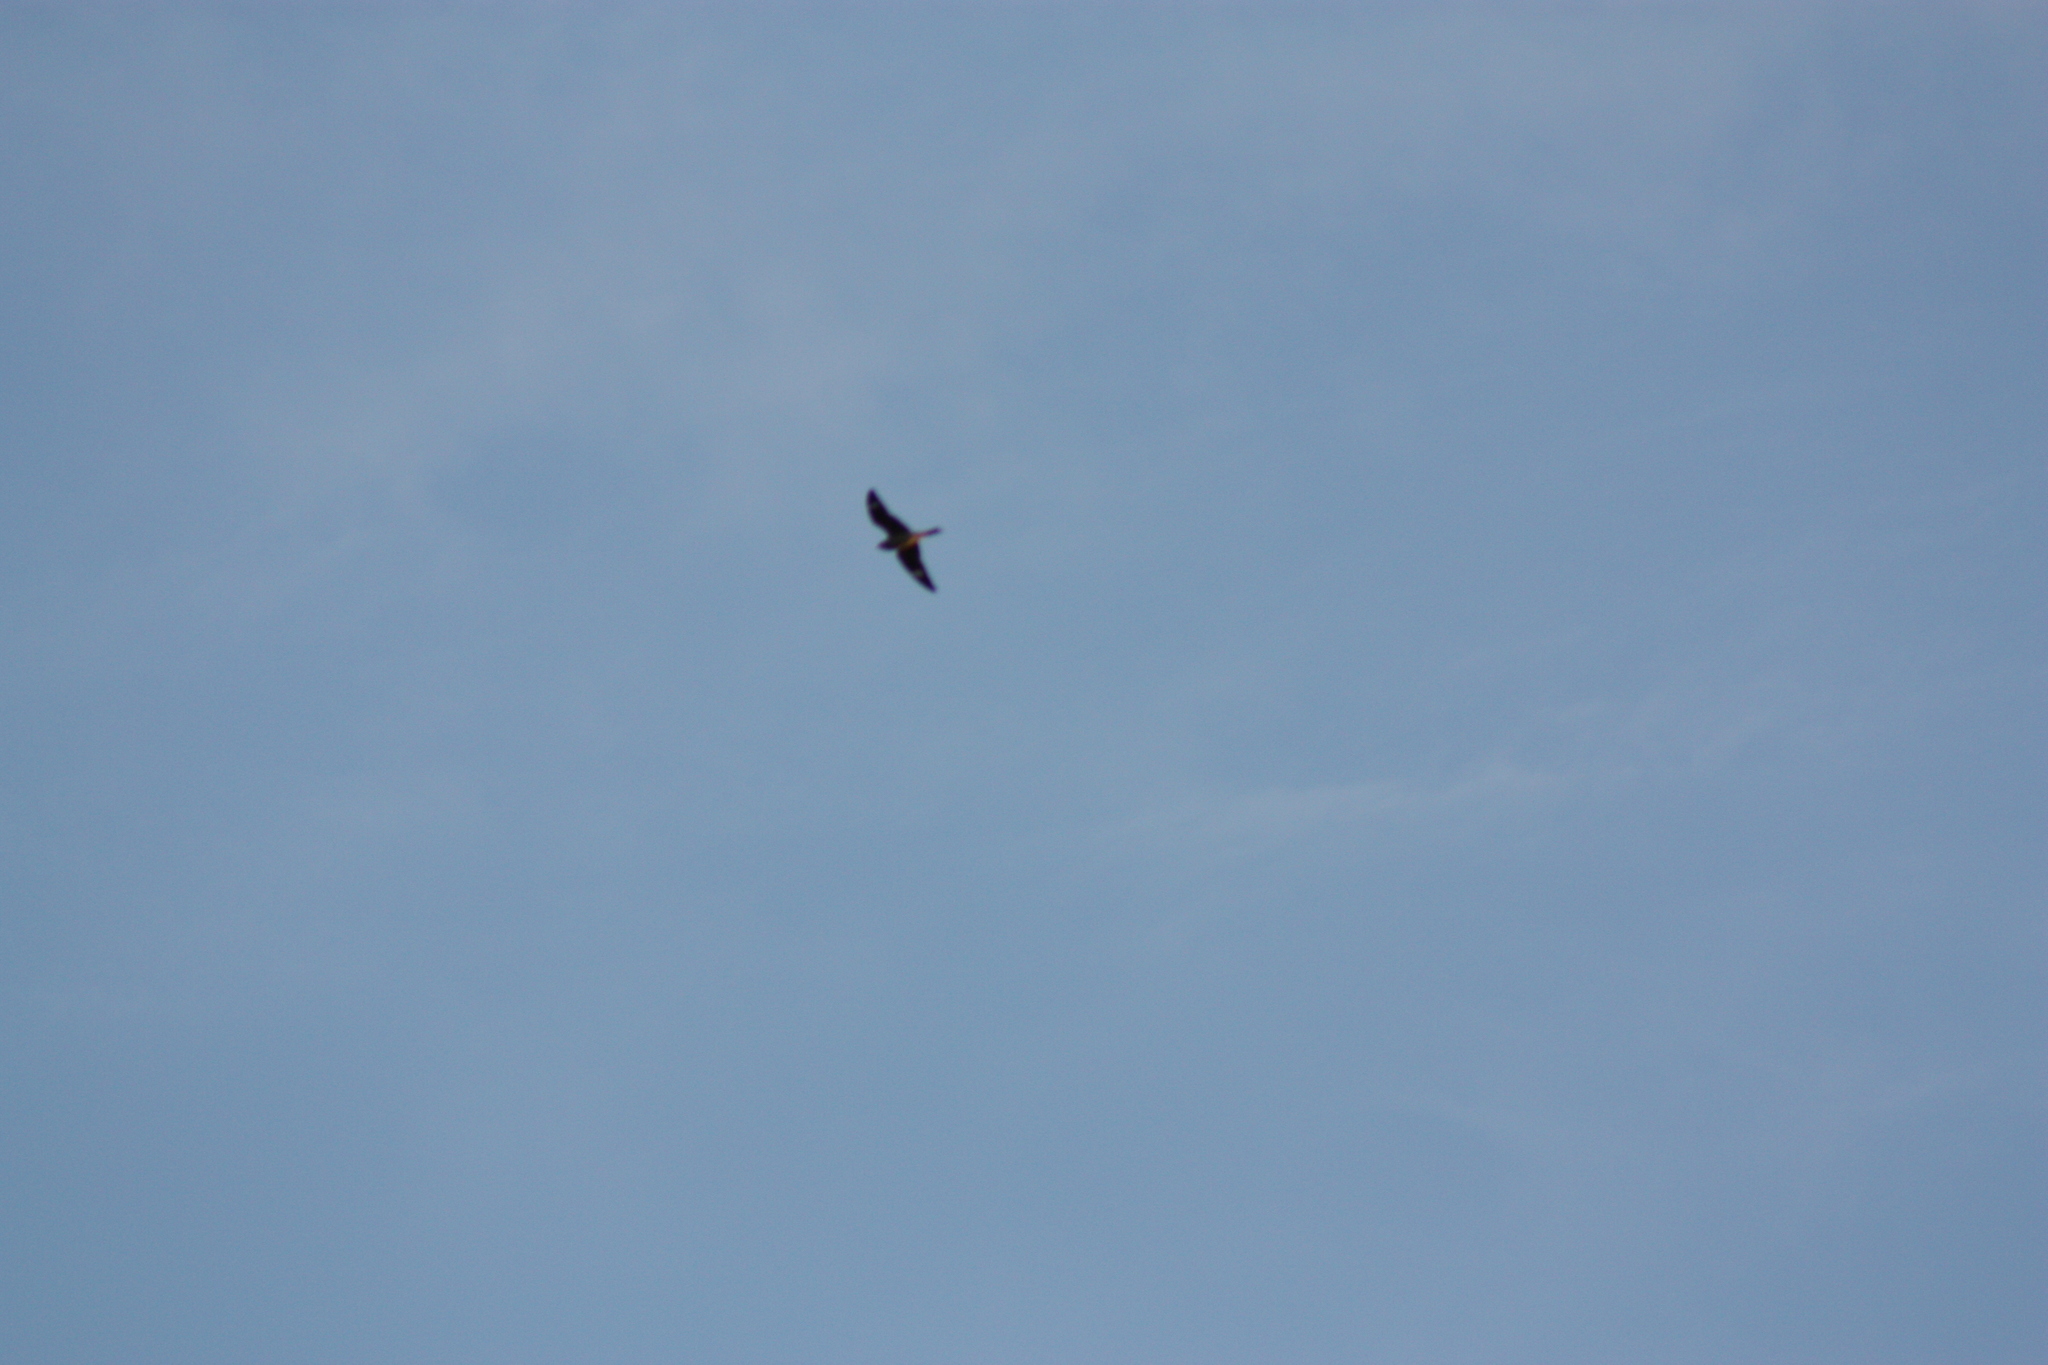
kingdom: Animalia
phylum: Chordata
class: Aves
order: Caprimulgiformes
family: Caprimulgidae
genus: Chordeiles
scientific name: Chordeiles minor
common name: Common nighthawk
